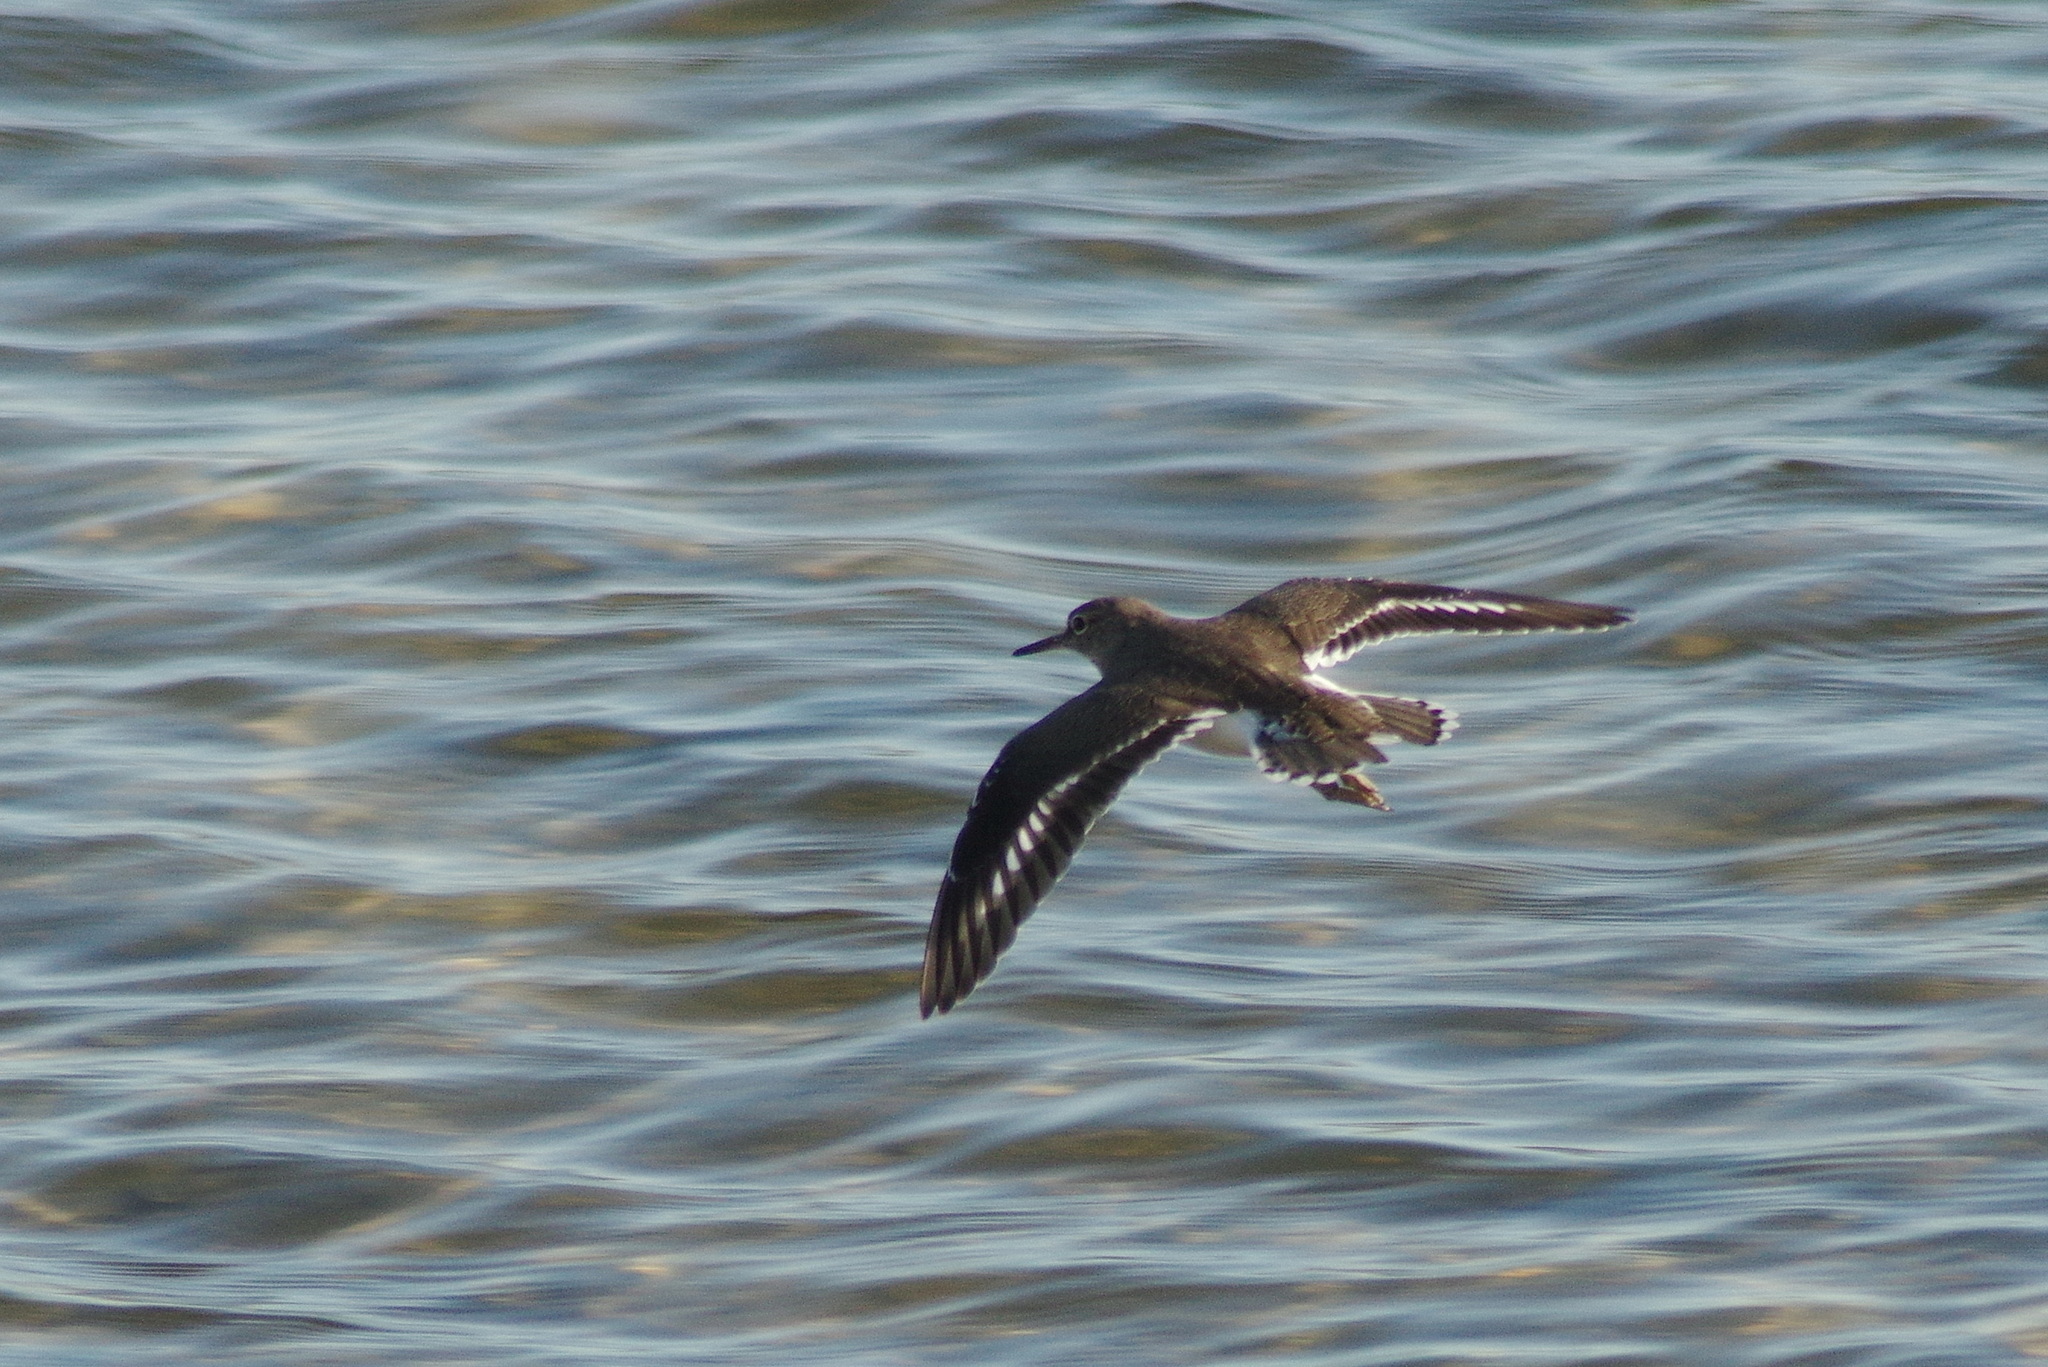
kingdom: Animalia
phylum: Chordata
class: Aves
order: Charadriiformes
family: Scolopacidae
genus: Actitis
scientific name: Actitis hypoleucos
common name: Common sandpiper
